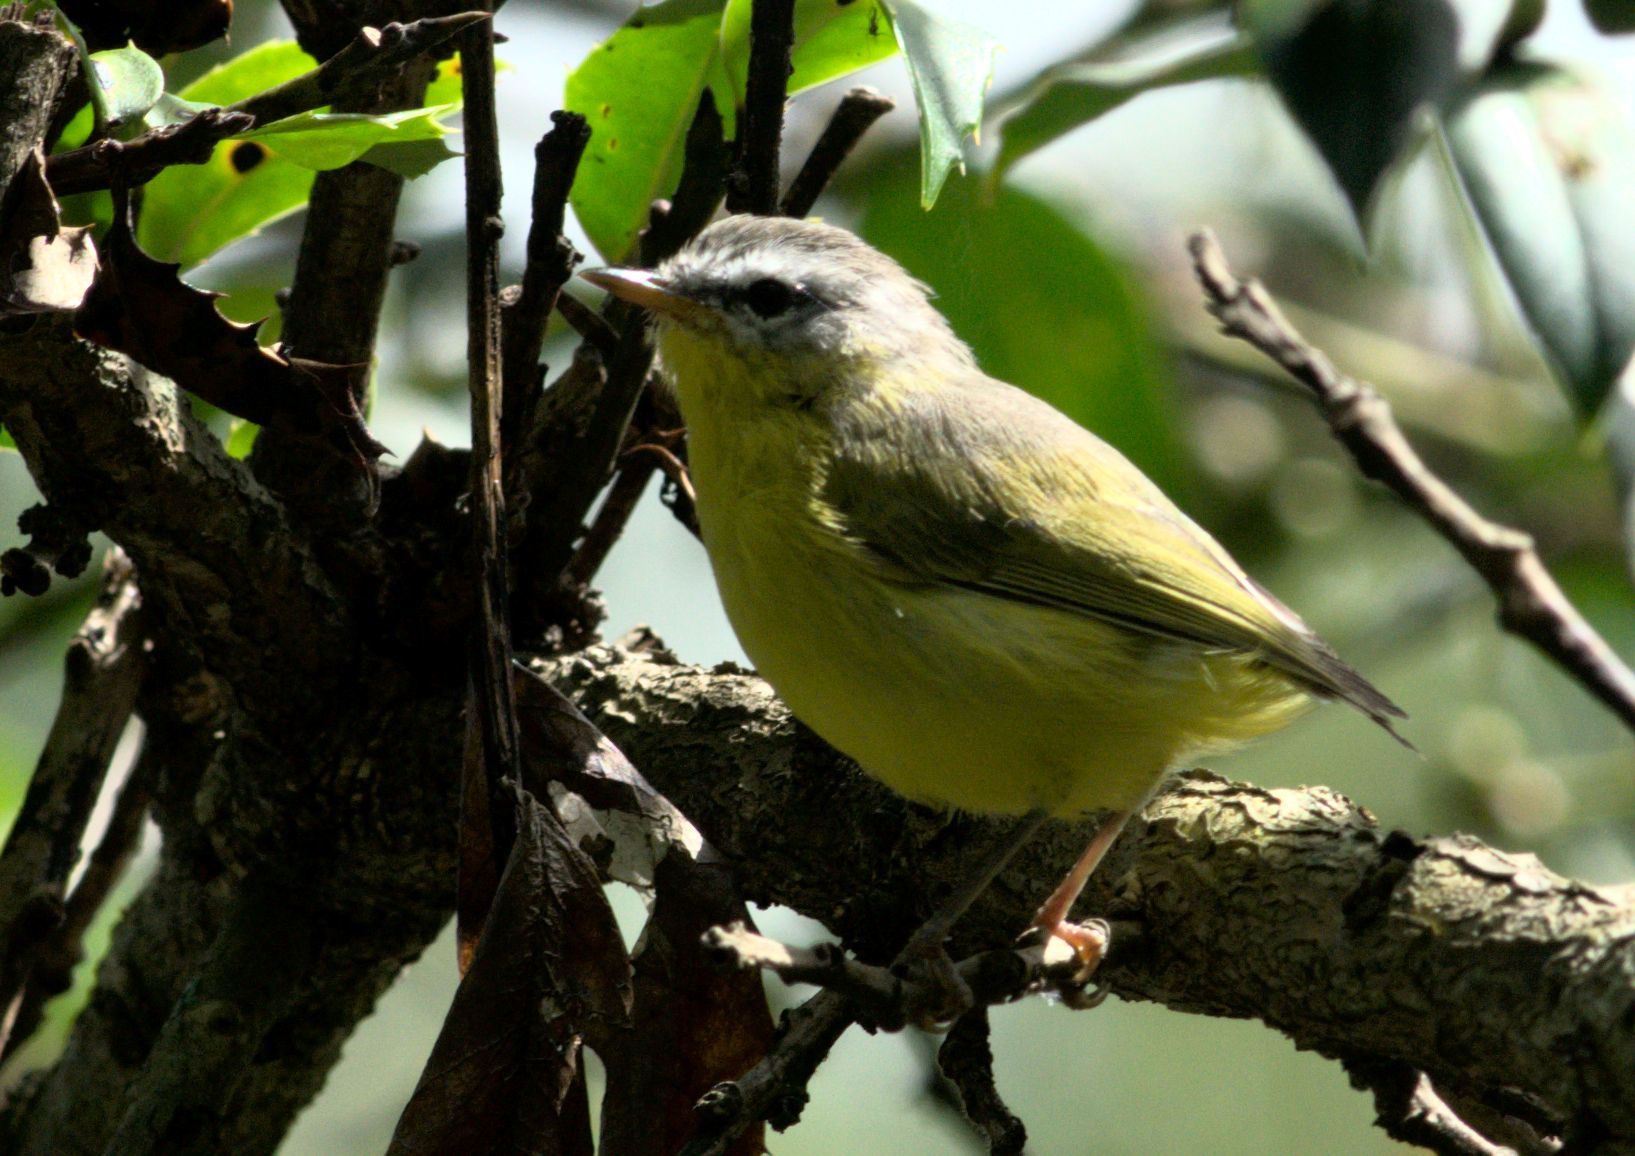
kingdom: Animalia
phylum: Chordata
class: Aves
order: Passeriformes
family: Phylloscopidae
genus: Phylloscopus
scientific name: Phylloscopus xanthoschistos
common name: Grey-hooded warbler
